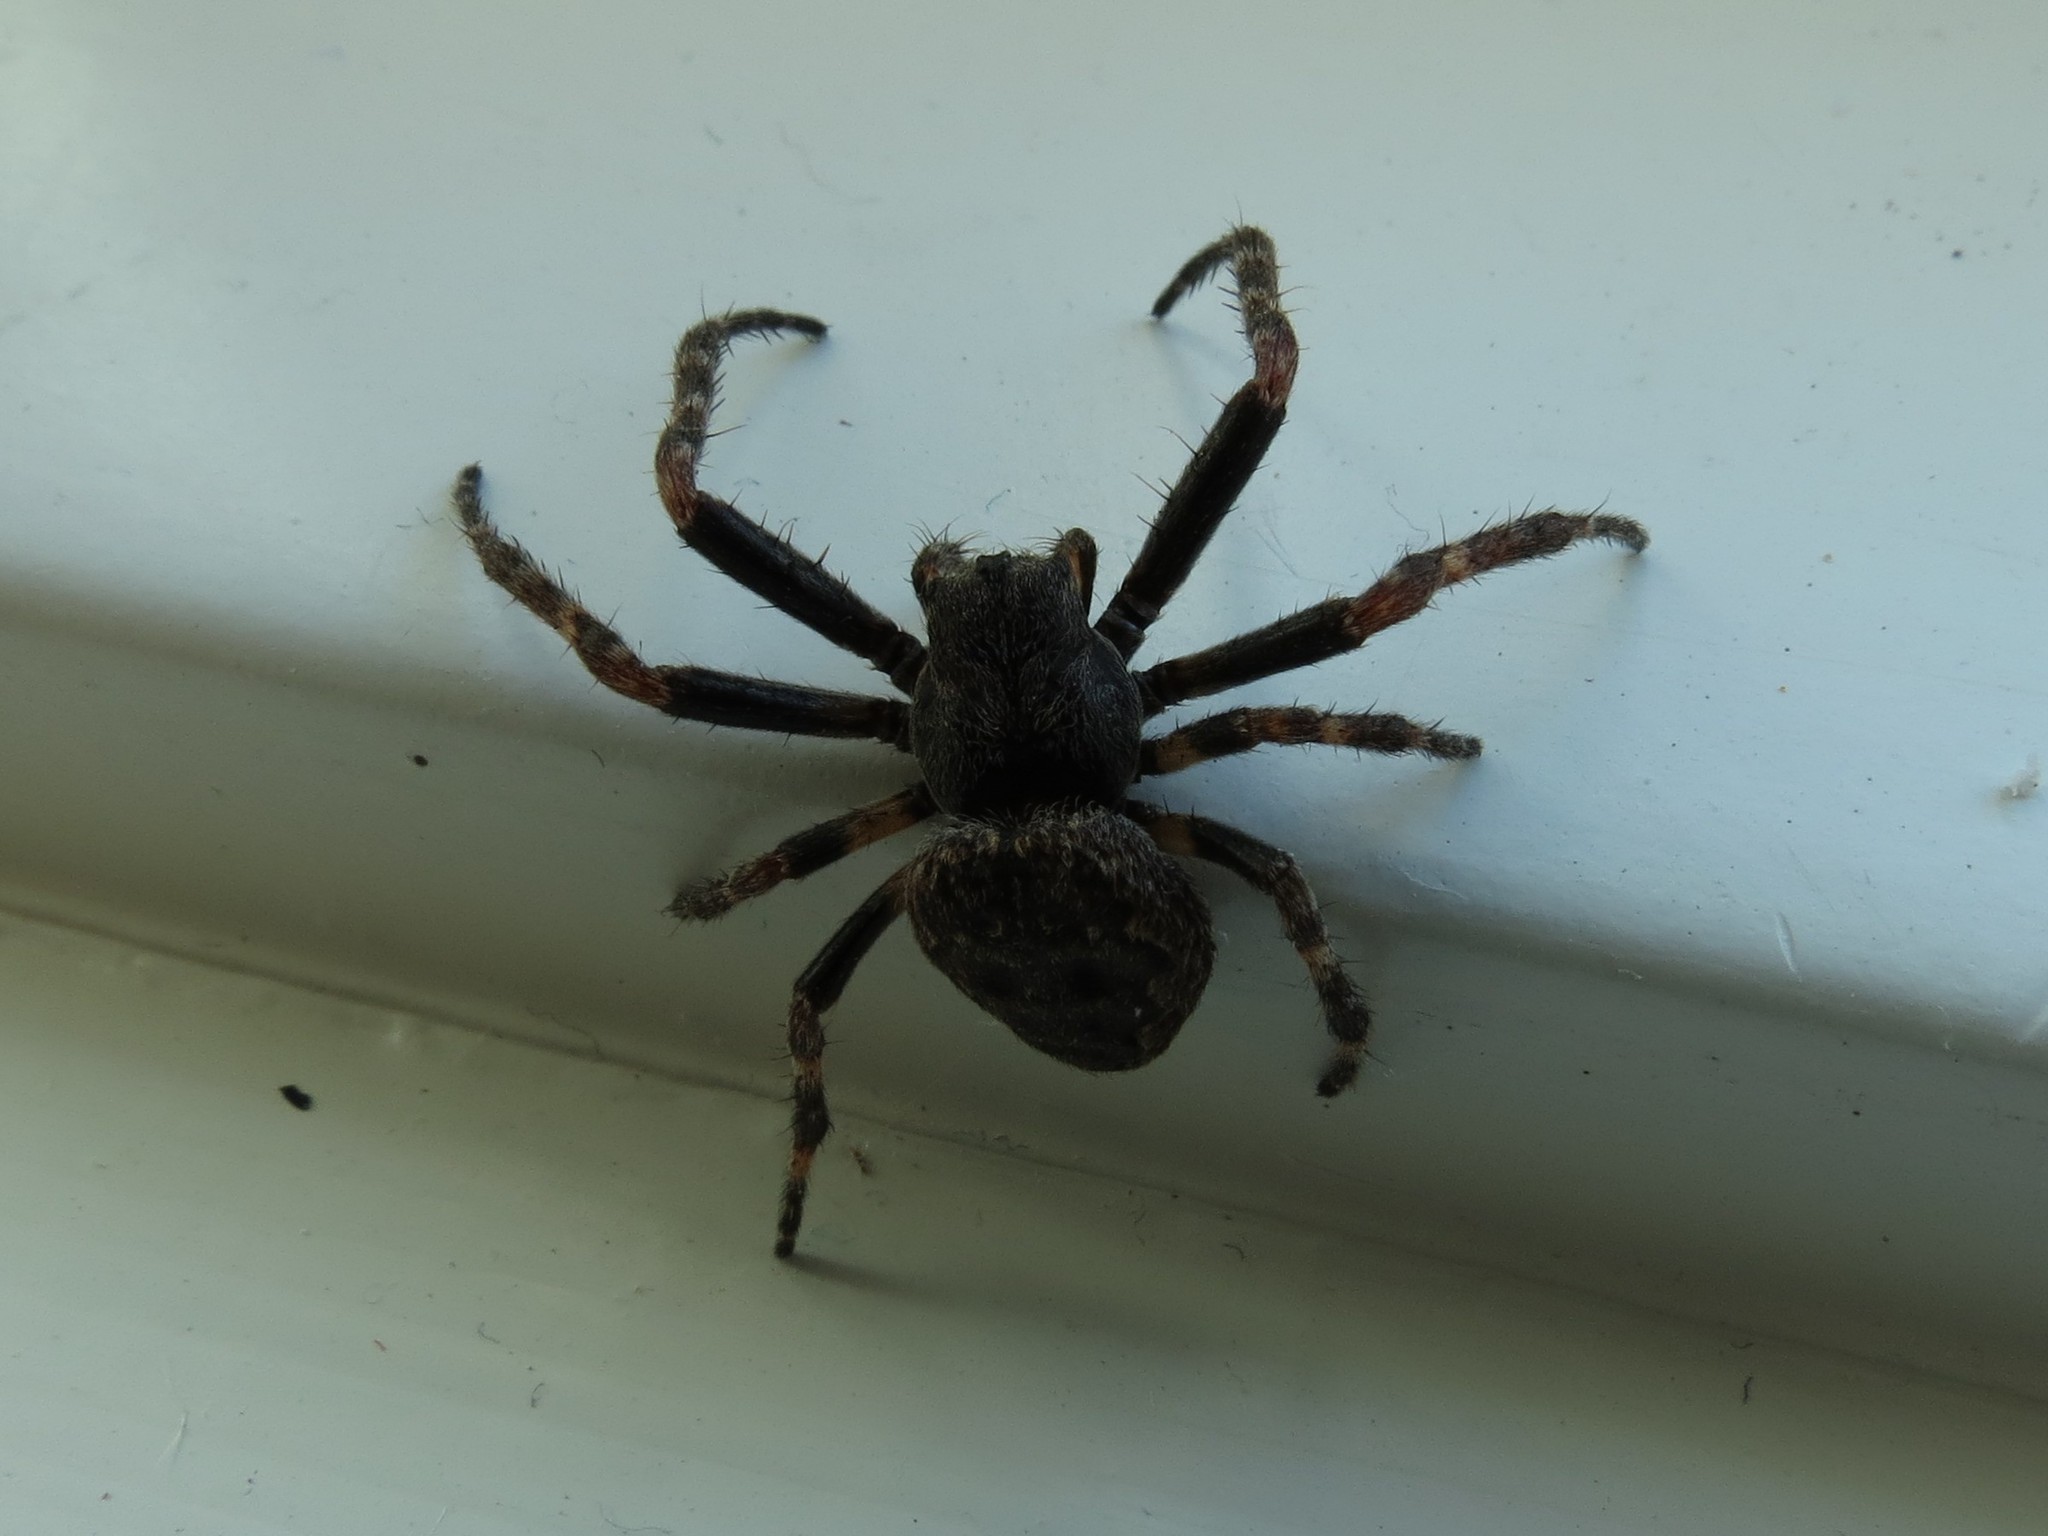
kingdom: Animalia
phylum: Arthropoda
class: Arachnida
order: Araneae
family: Araneidae
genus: Nuctenea
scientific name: Nuctenea umbratica
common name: Toad spider
